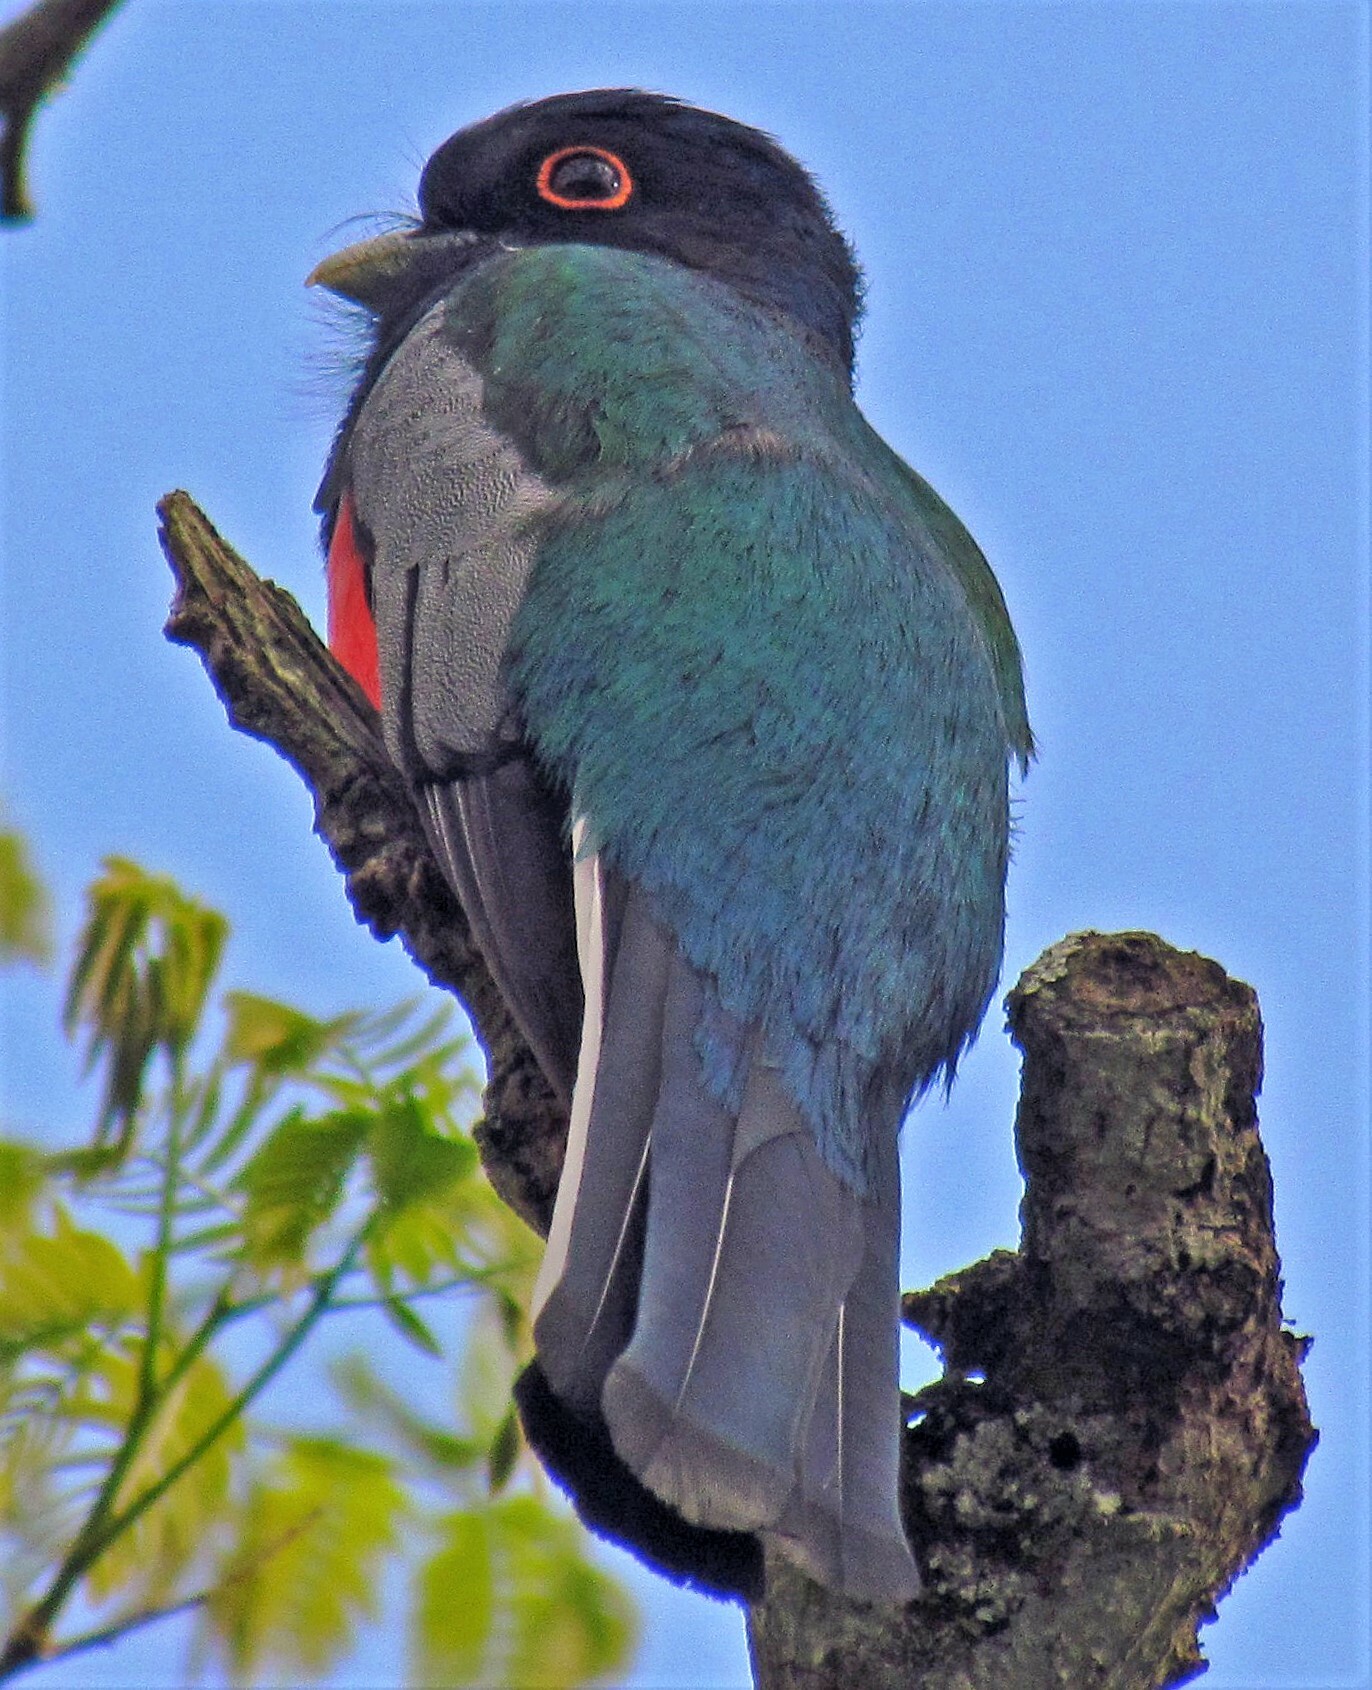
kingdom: Animalia
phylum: Chordata
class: Aves
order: Trogoniformes
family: Trogonidae
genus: Trogon
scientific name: Trogon surrucura
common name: Surucua trogon
